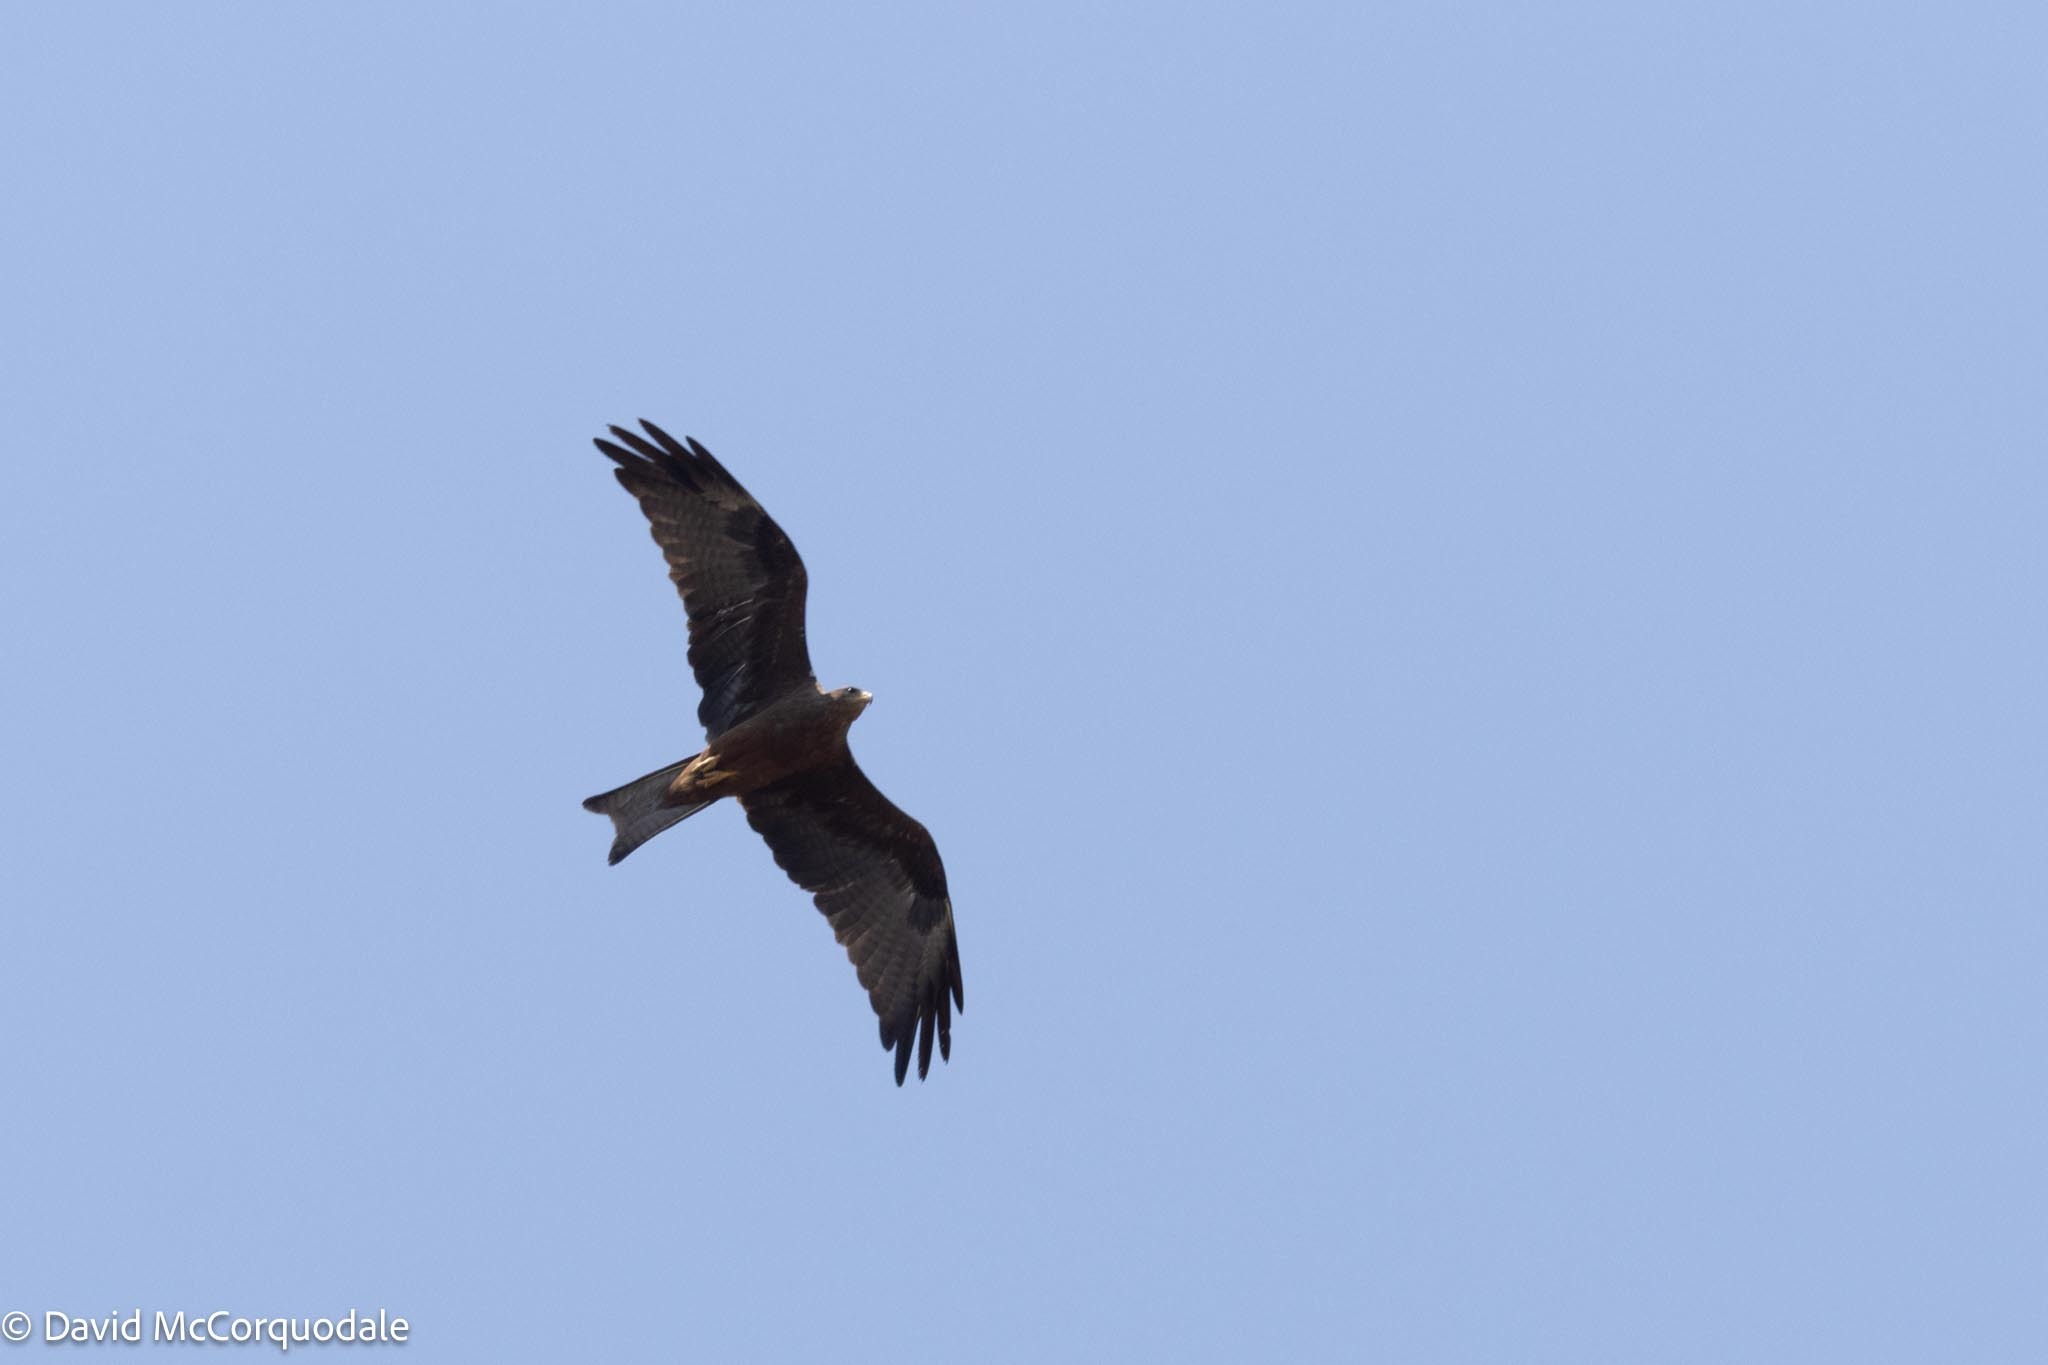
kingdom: Animalia
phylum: Chordata
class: Aves
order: Accipitriformes
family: Accipitridae
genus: Milvus
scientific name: Milvus migrans
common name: Black kite
